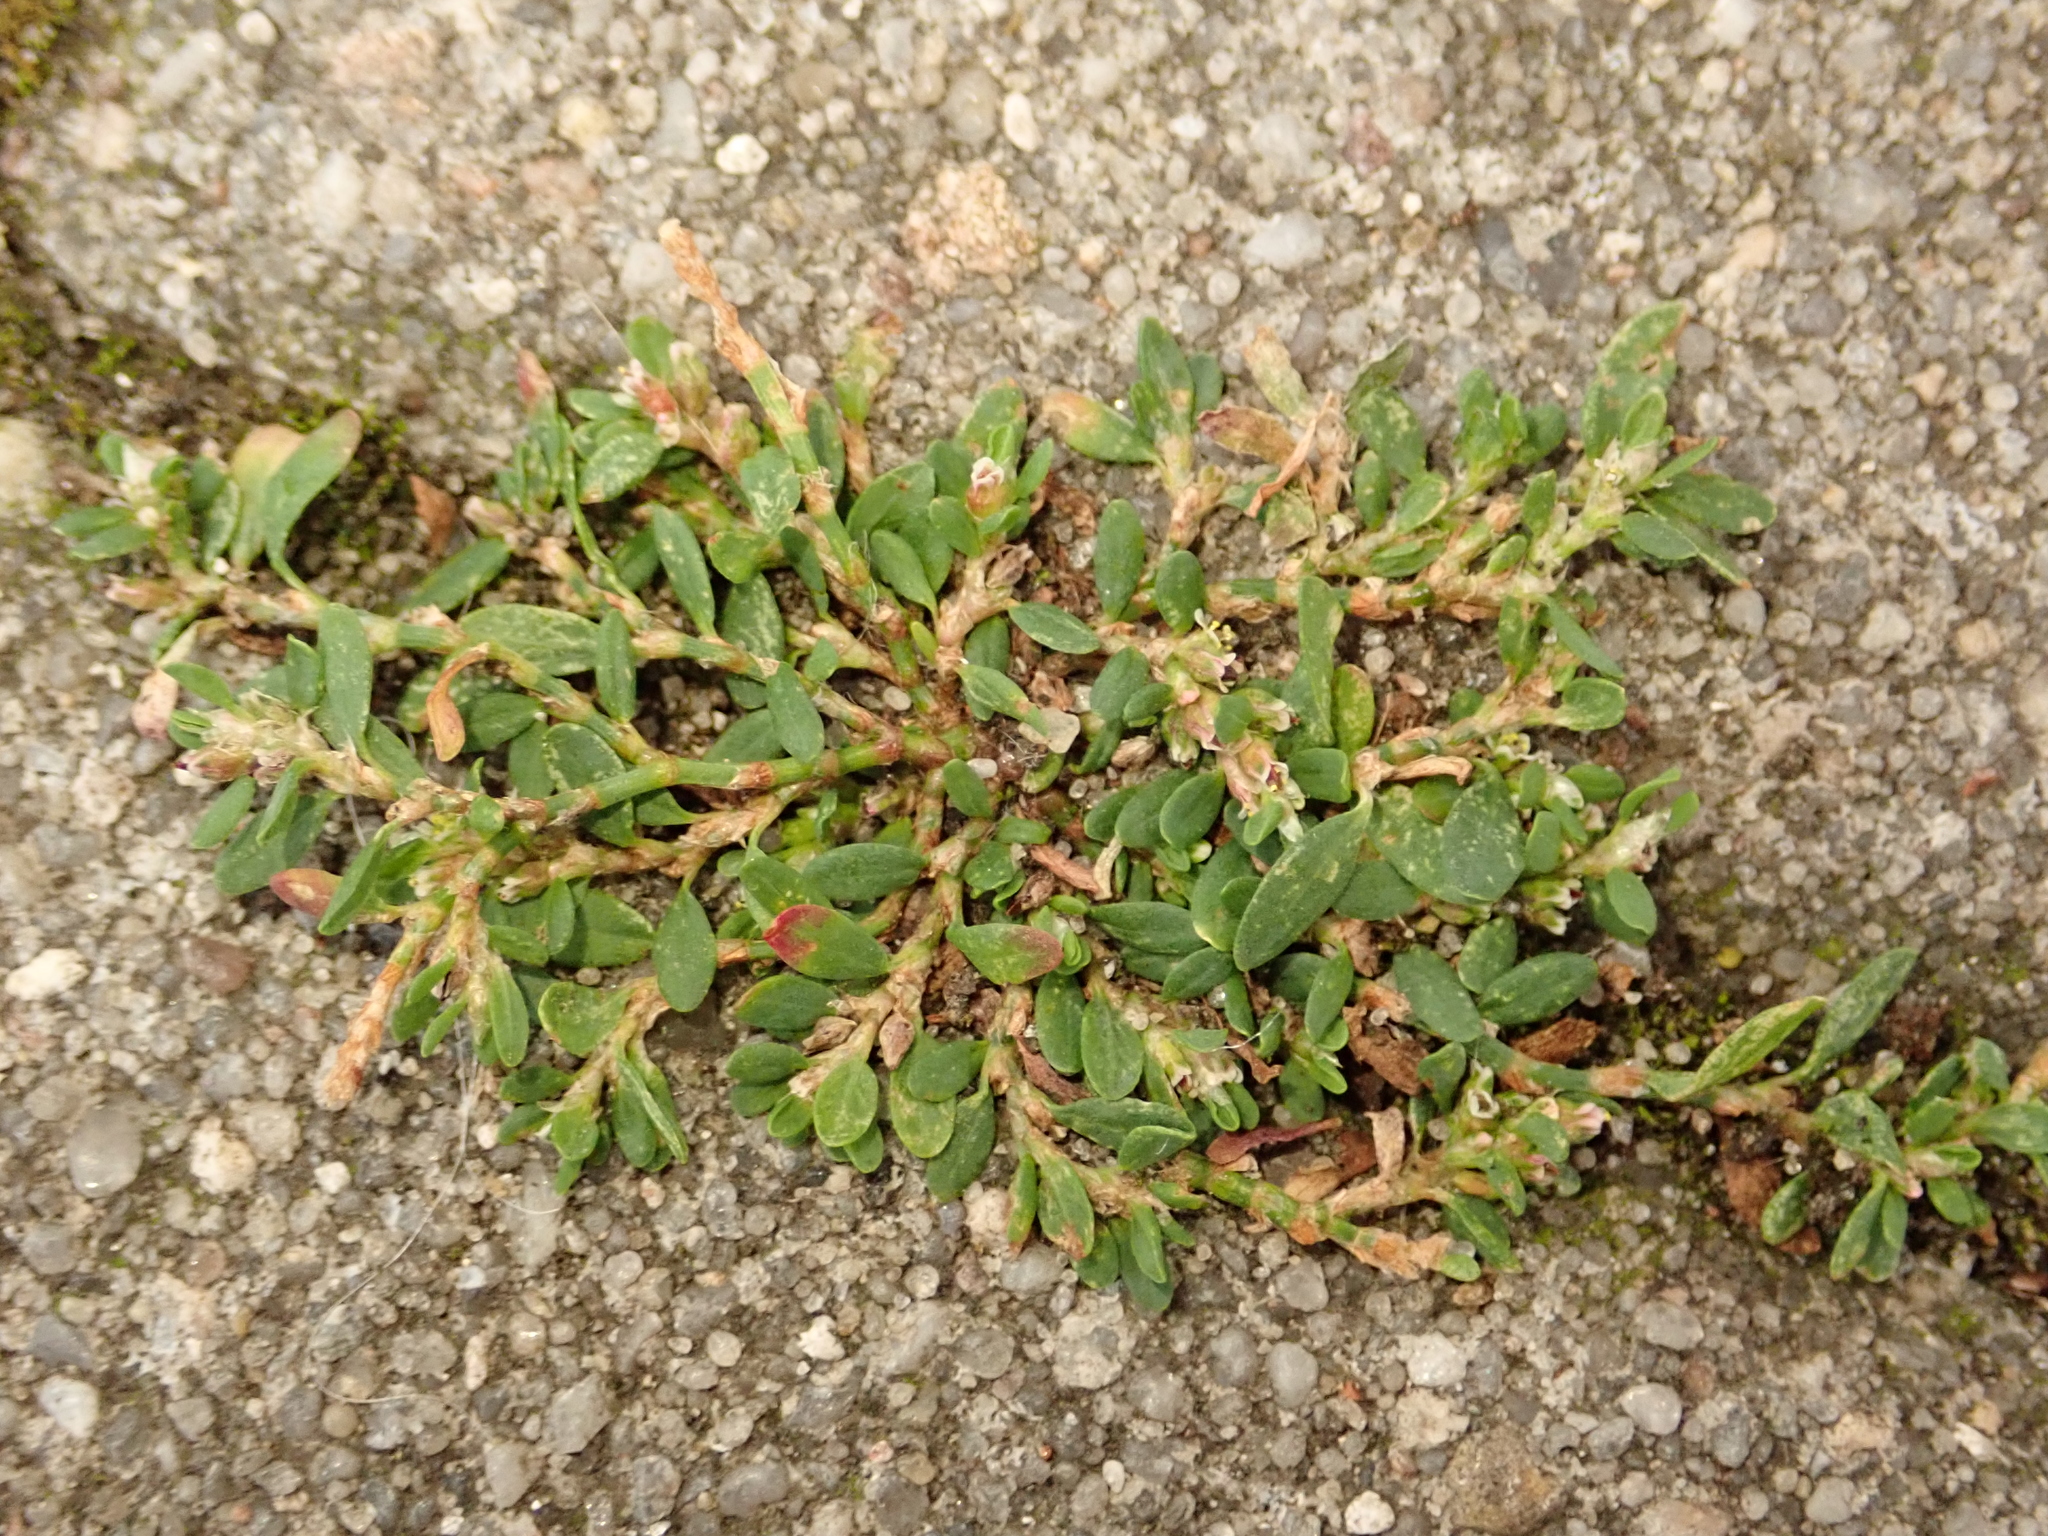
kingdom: Plantae
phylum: Tracheophyta
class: Magnoliopsida
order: Caryophyllales
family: Polygonaceae
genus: Polygonum
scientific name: Polygonum arenastrum
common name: Equal-leaved knotgrass
